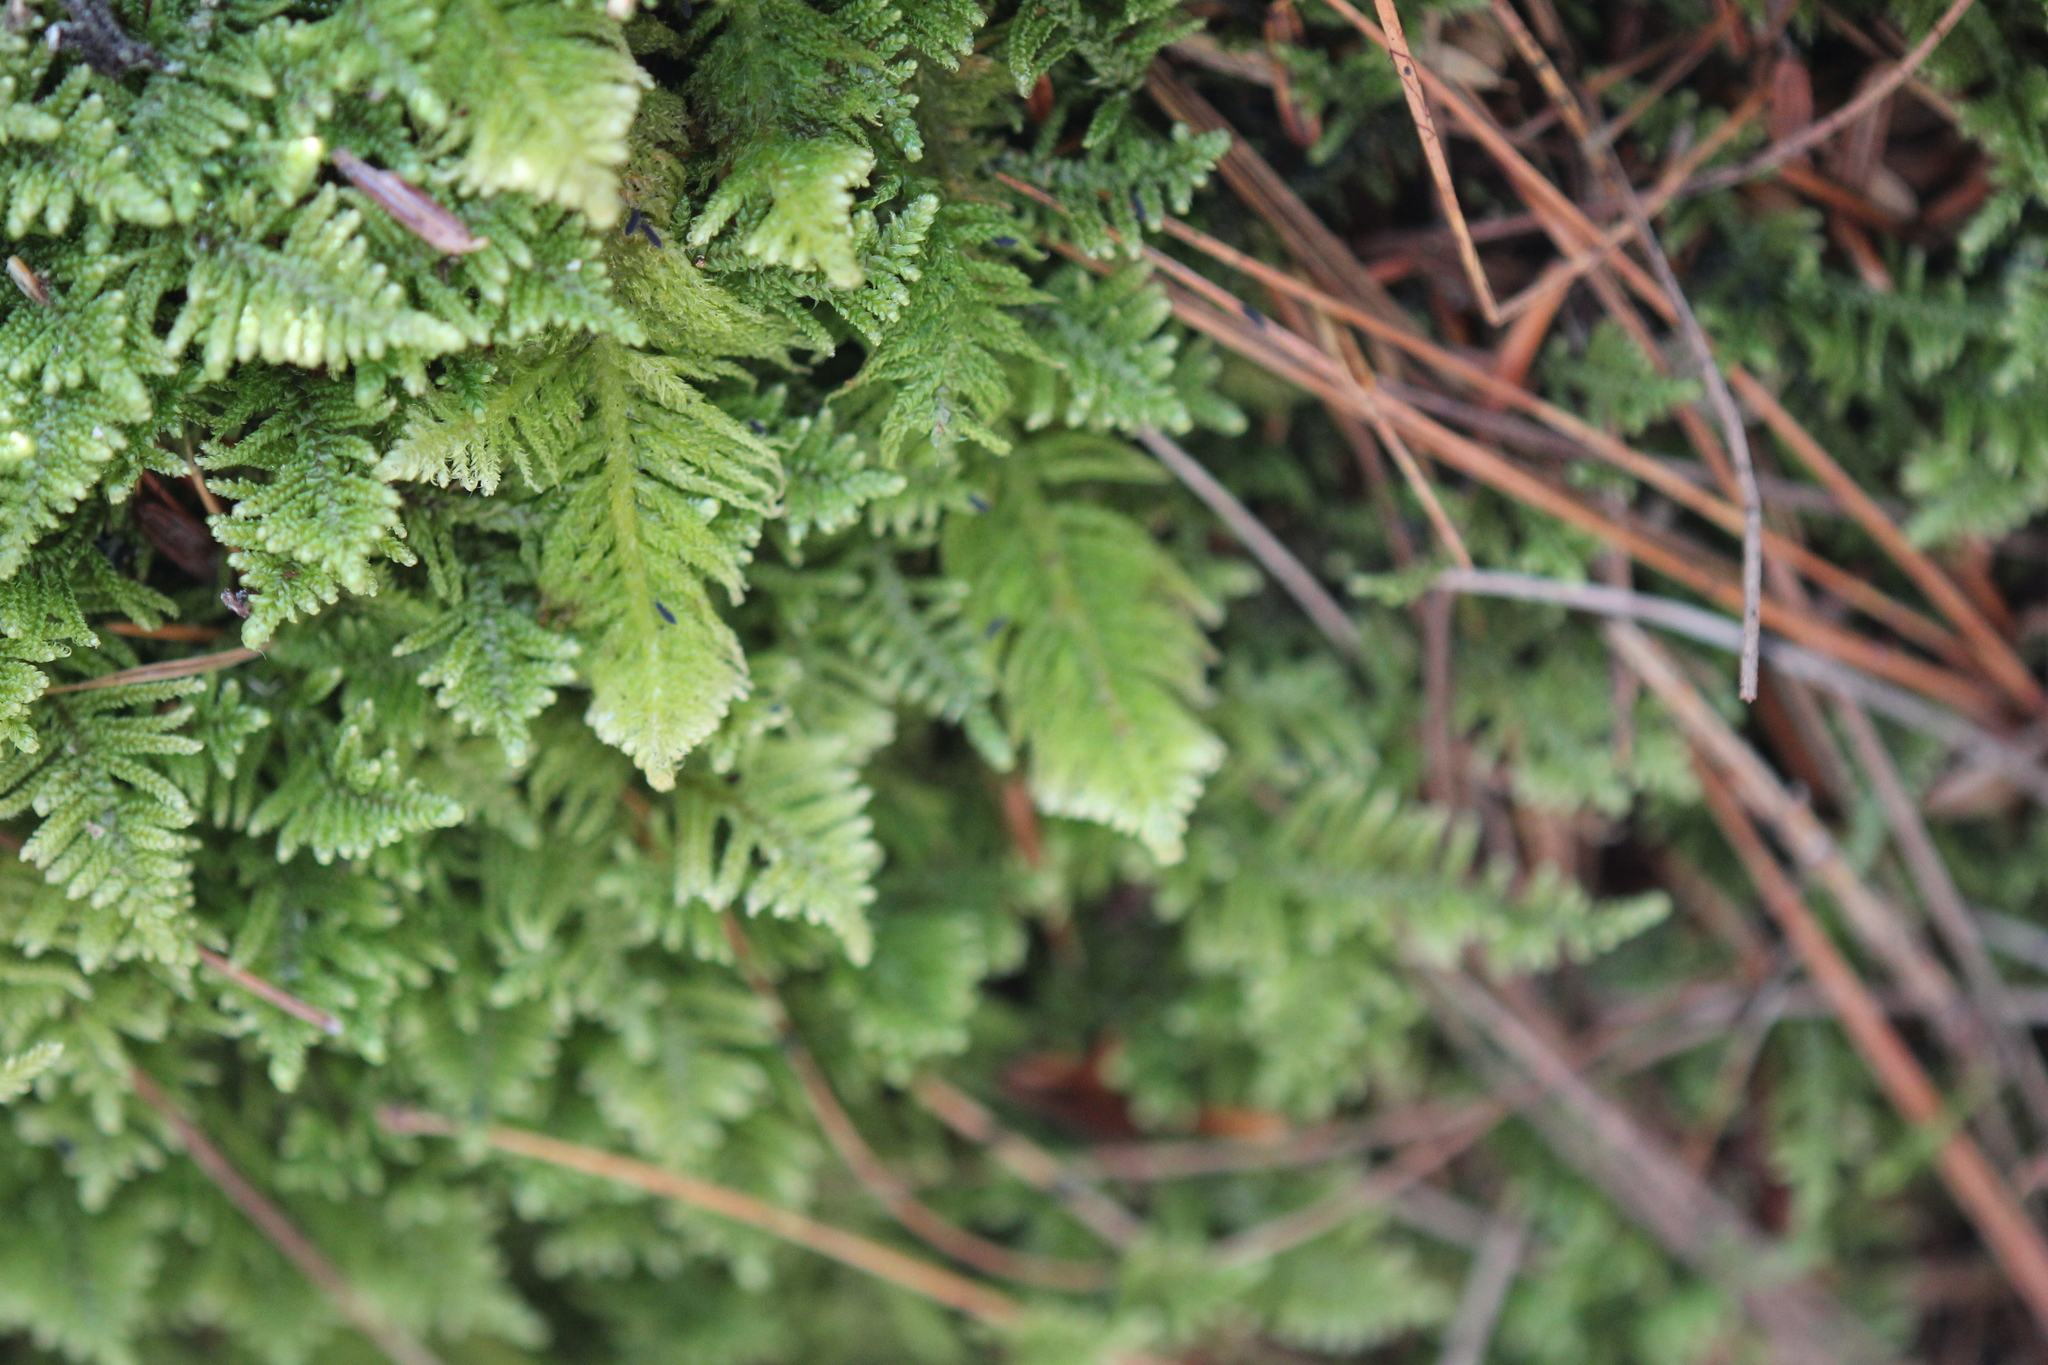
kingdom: Plantae
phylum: Bryophyta
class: Bryopsida
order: Hypnales
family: Pylaisiaceae
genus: Ptilium
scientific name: Ptilium crista-castrensis
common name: Knight's plume moss
